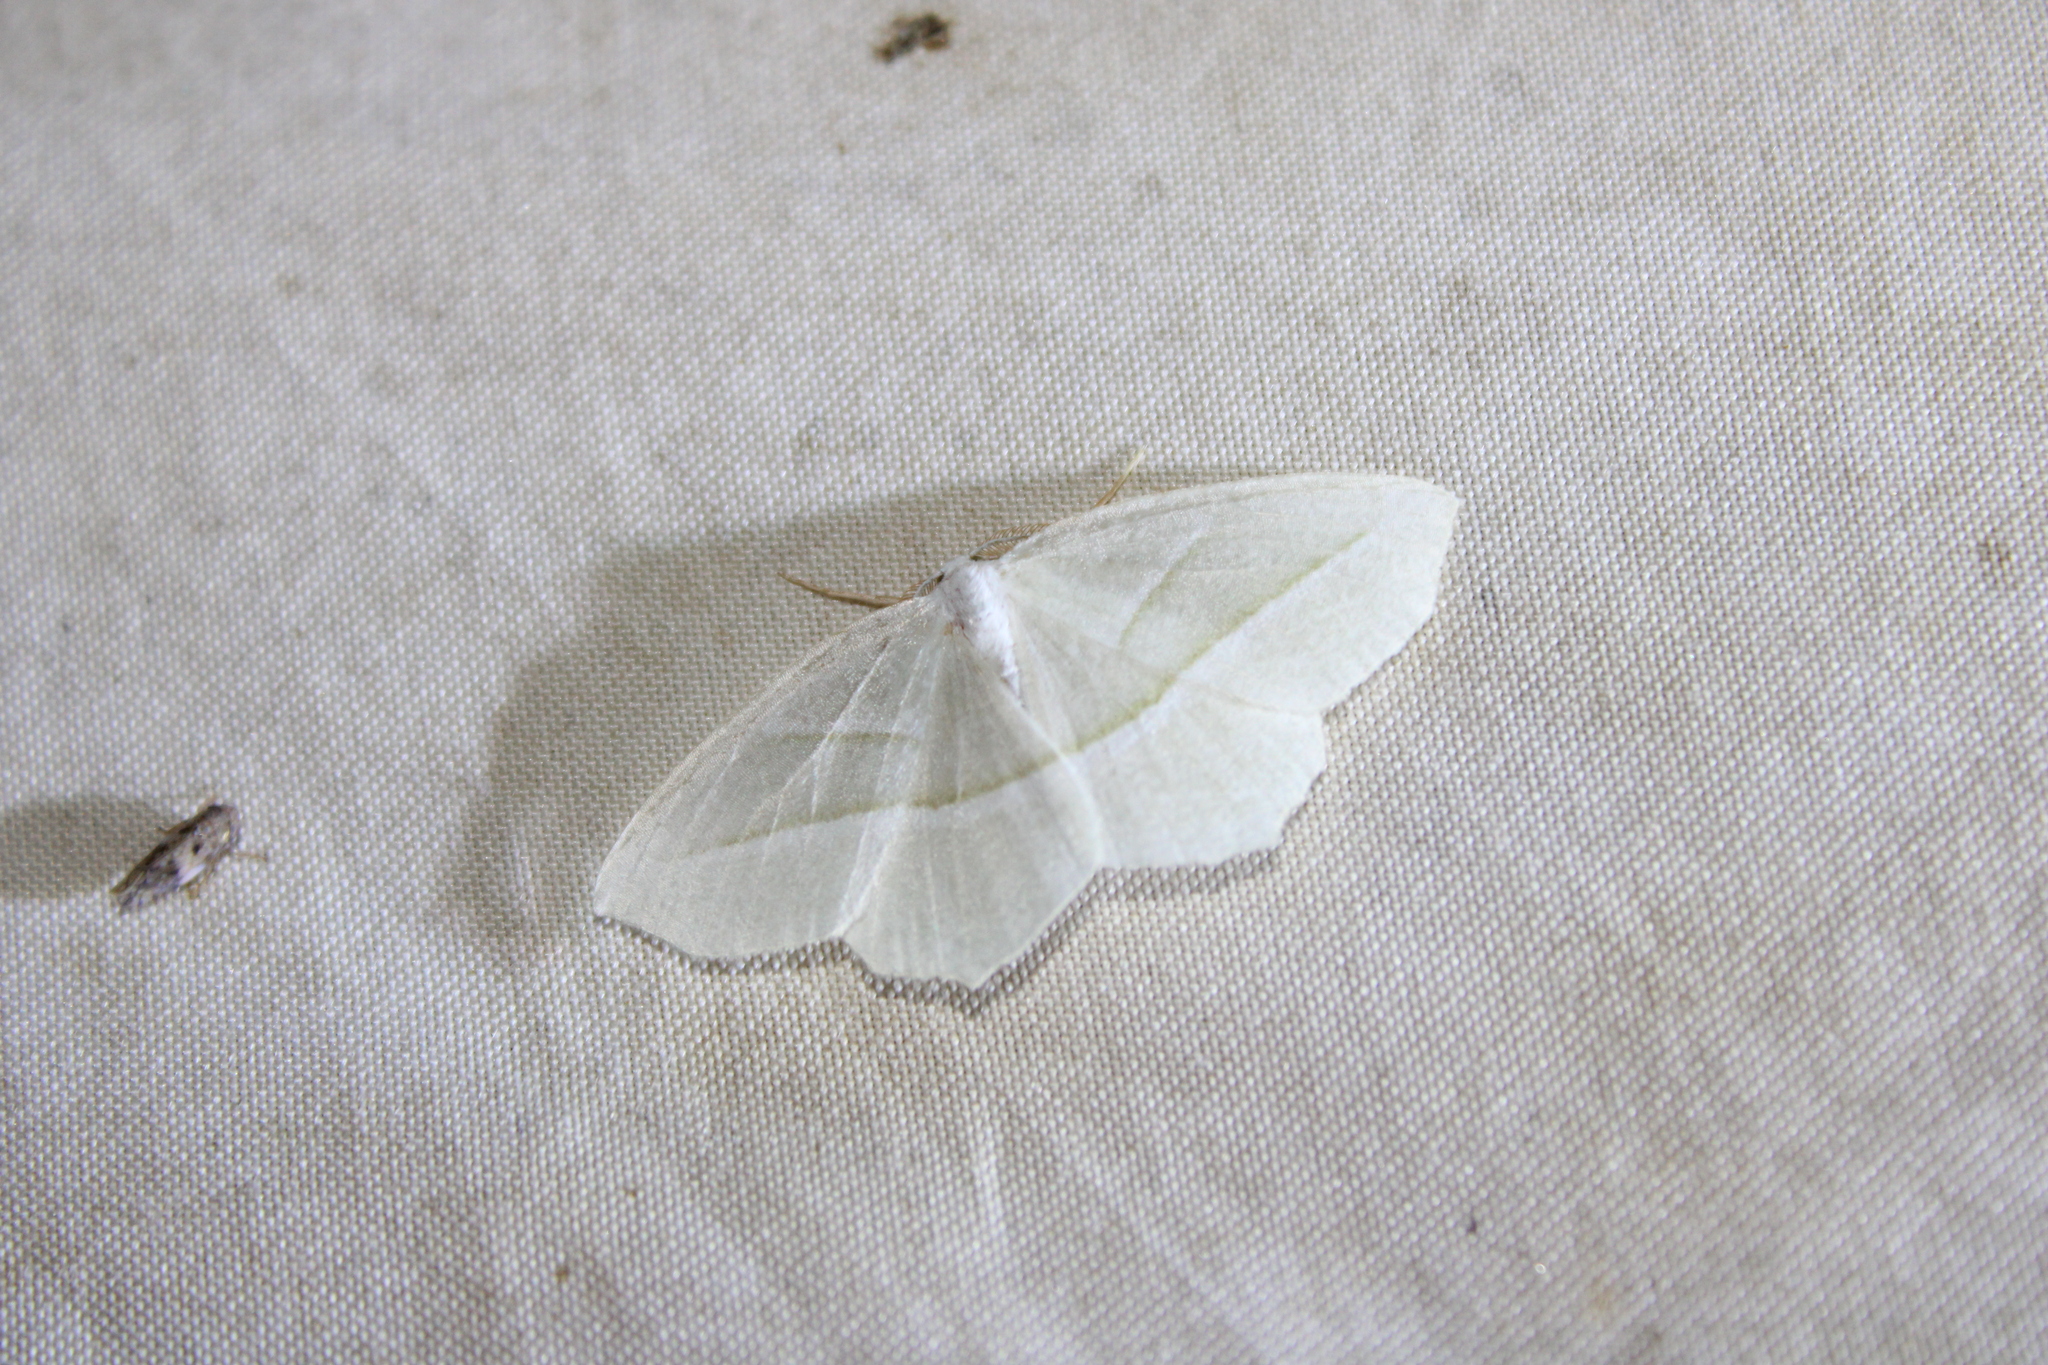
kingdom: Animalia
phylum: Arthropoda
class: Insecta
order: Lepidoptera
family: Geometridae
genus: Campaea
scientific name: Campaea perlata
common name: Fringed looper
